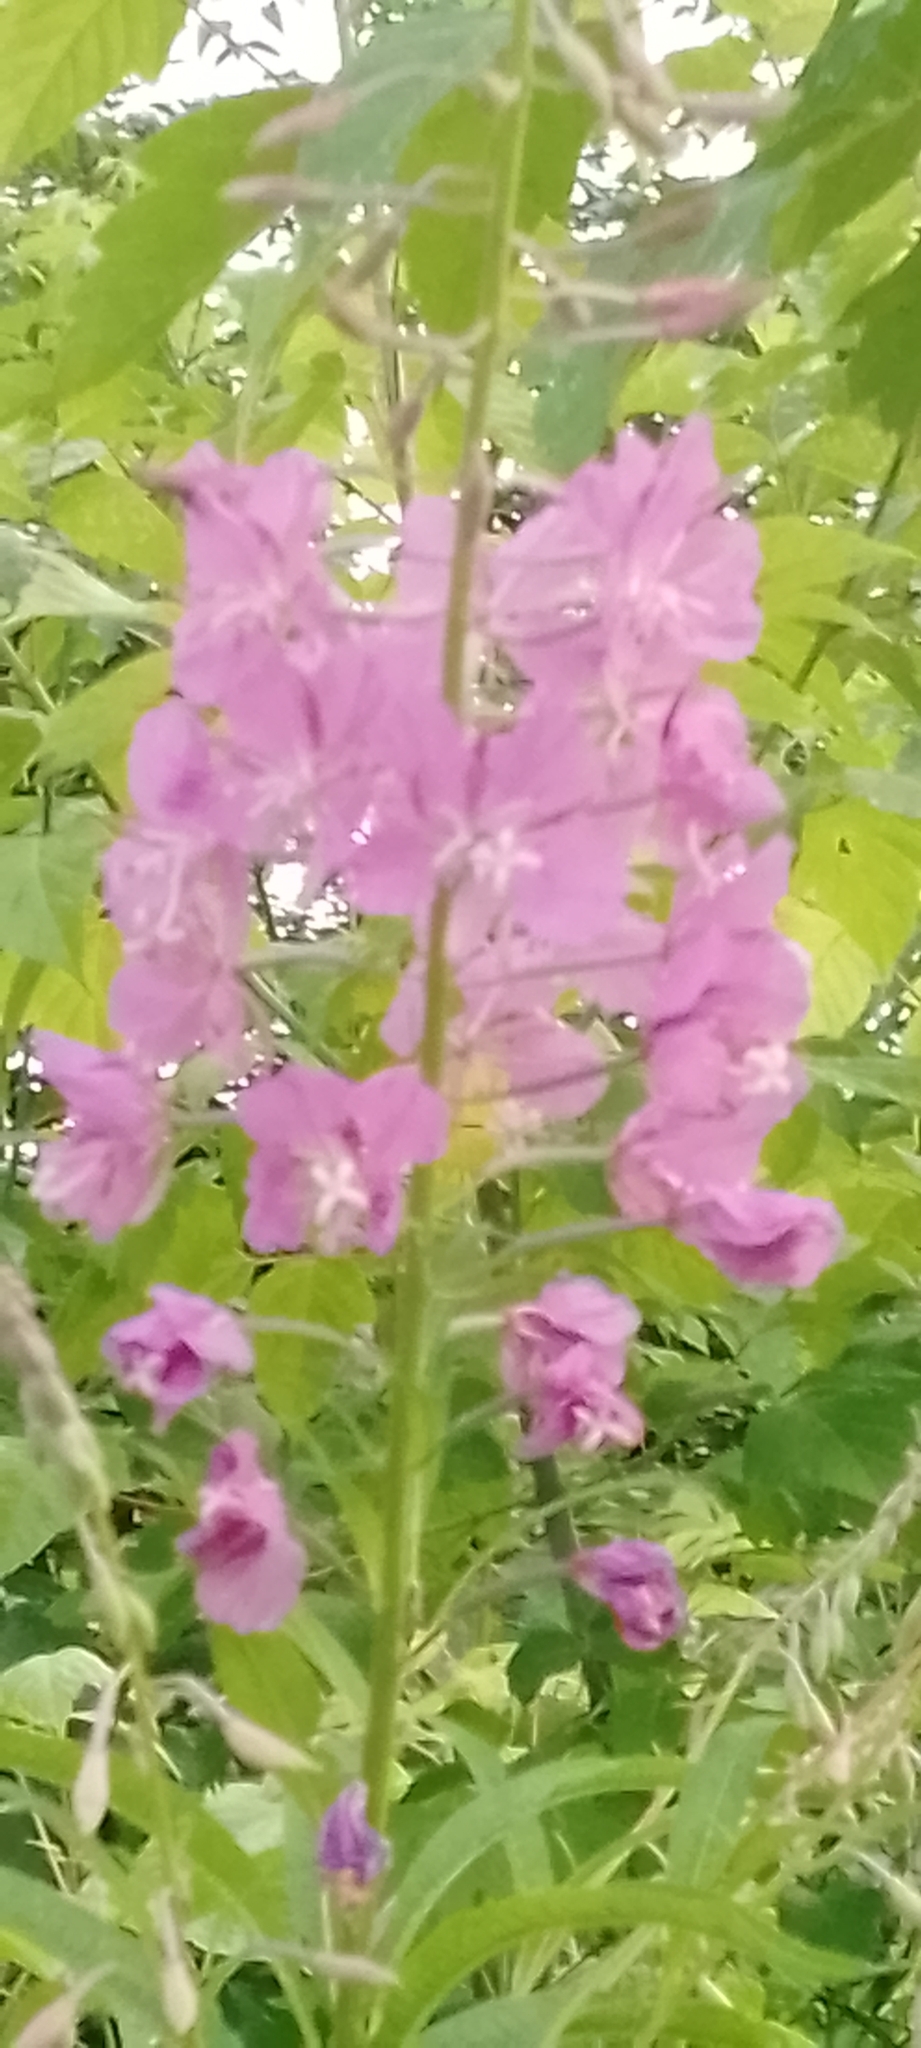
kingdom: Plantae
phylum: Tracheophyta
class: Magnoliopsida
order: Myrtales
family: Onagraceae
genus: Chamaenerion
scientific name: Chamaenerion angustifolium
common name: Fireweed
